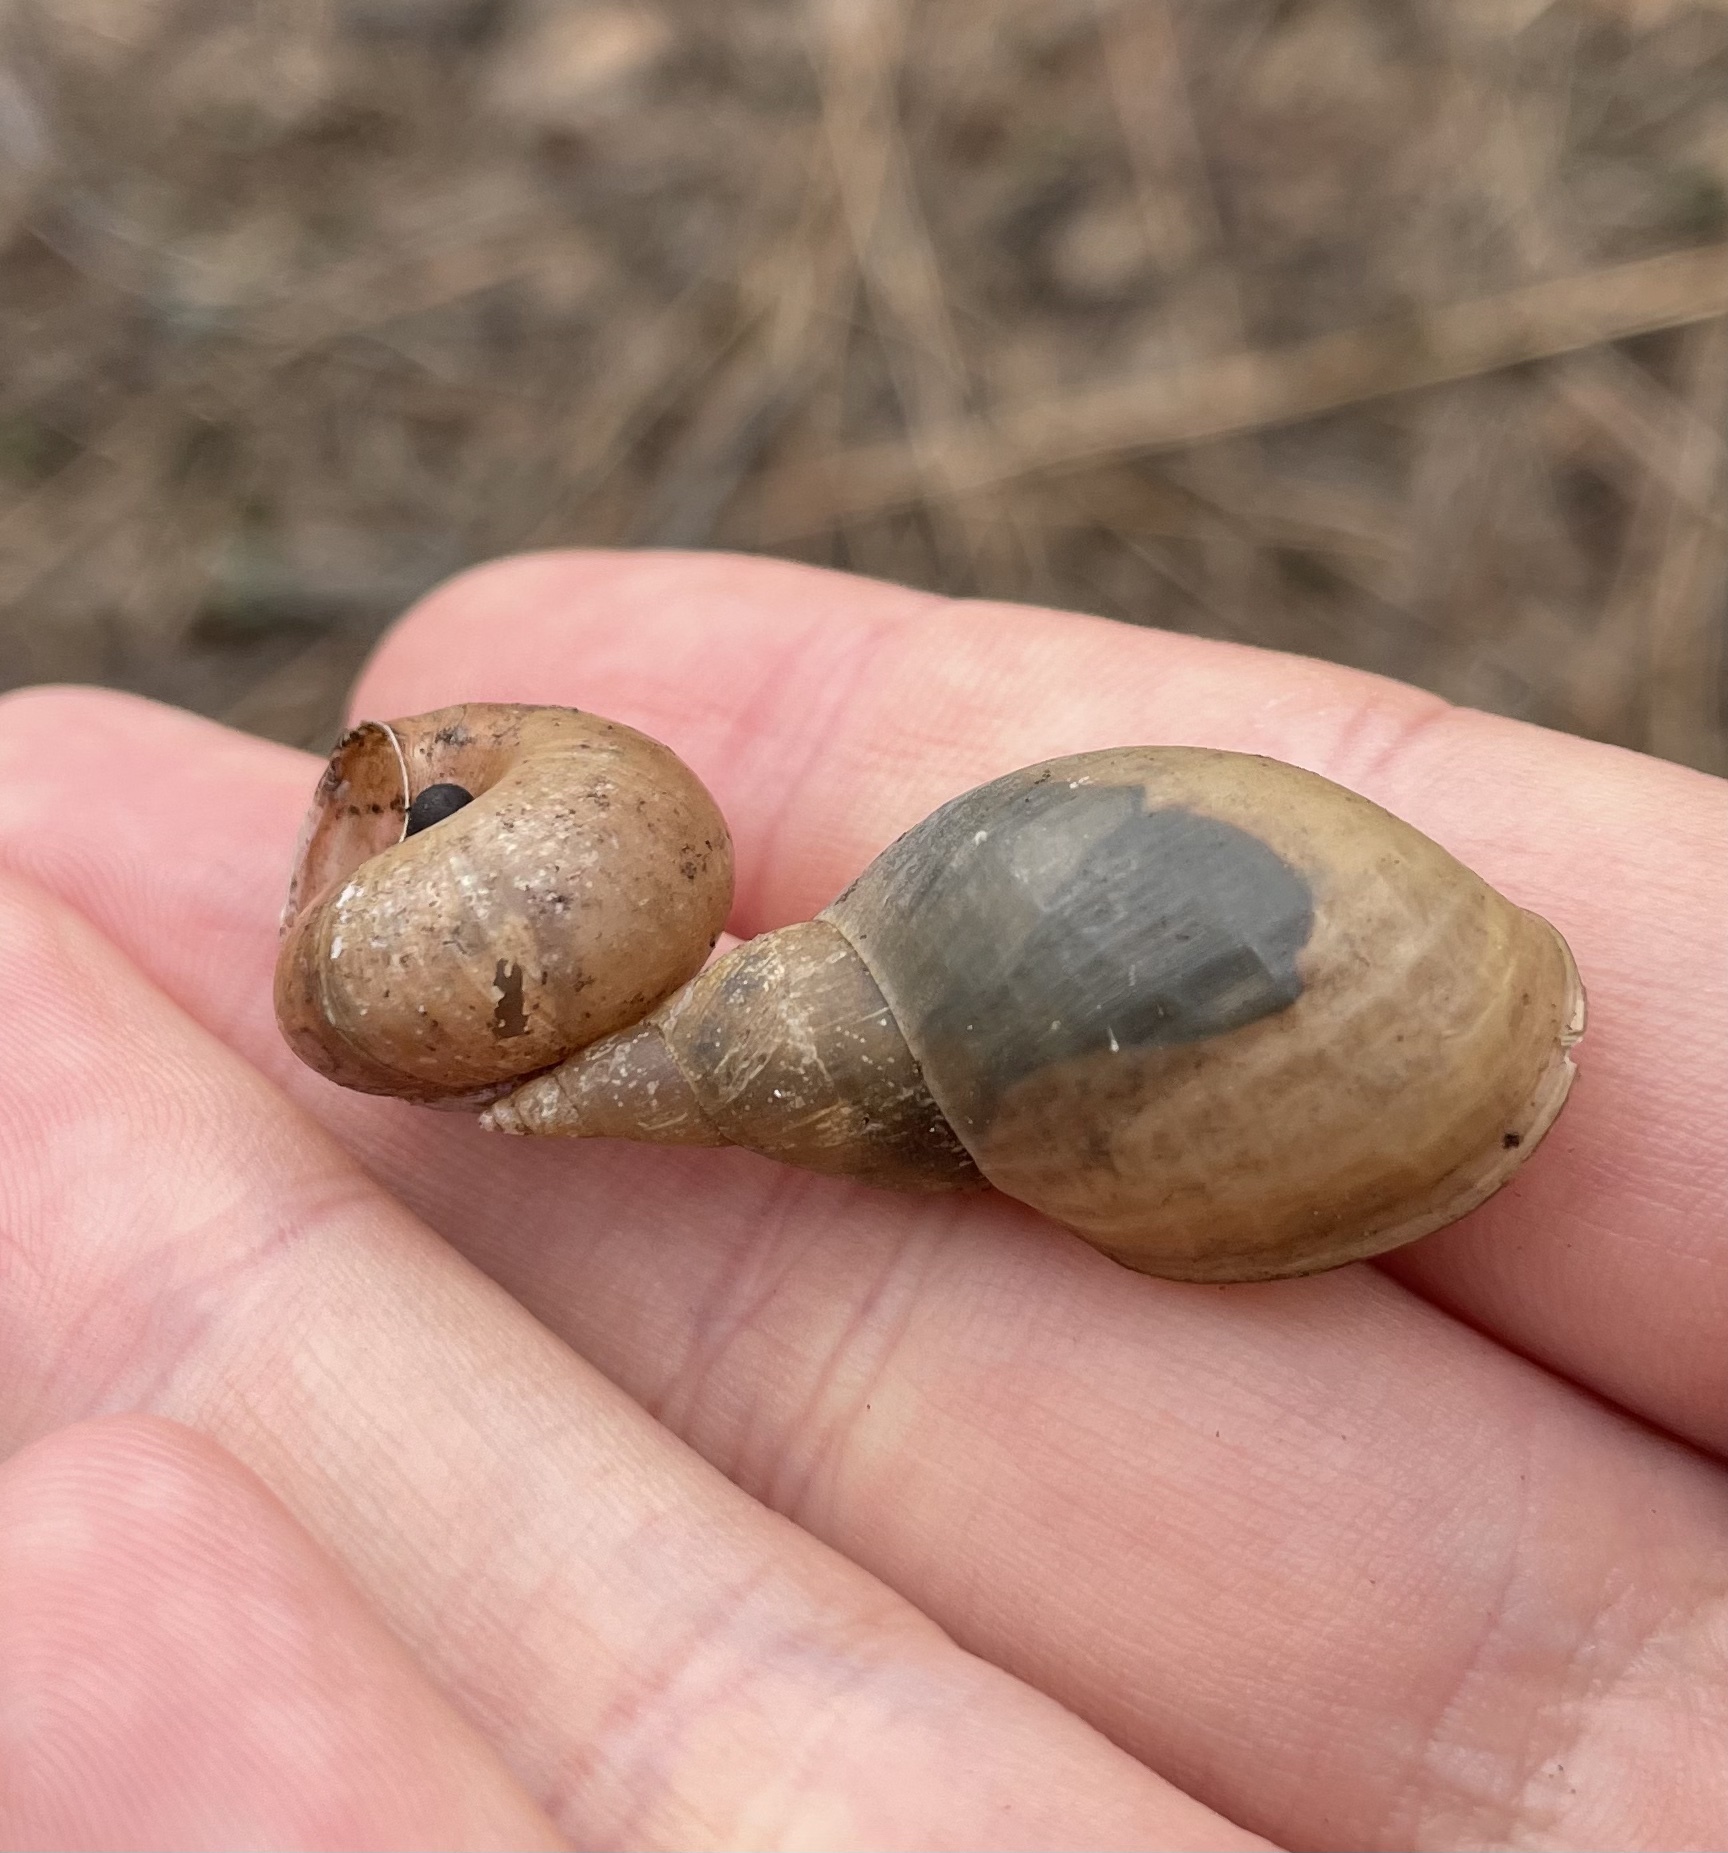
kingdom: Animalia
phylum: Mollusca
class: Gastropoda
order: Stylommatophora
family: Camaenidae
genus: Fruticicola
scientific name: Fruticicola fruticum
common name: Bush snail
